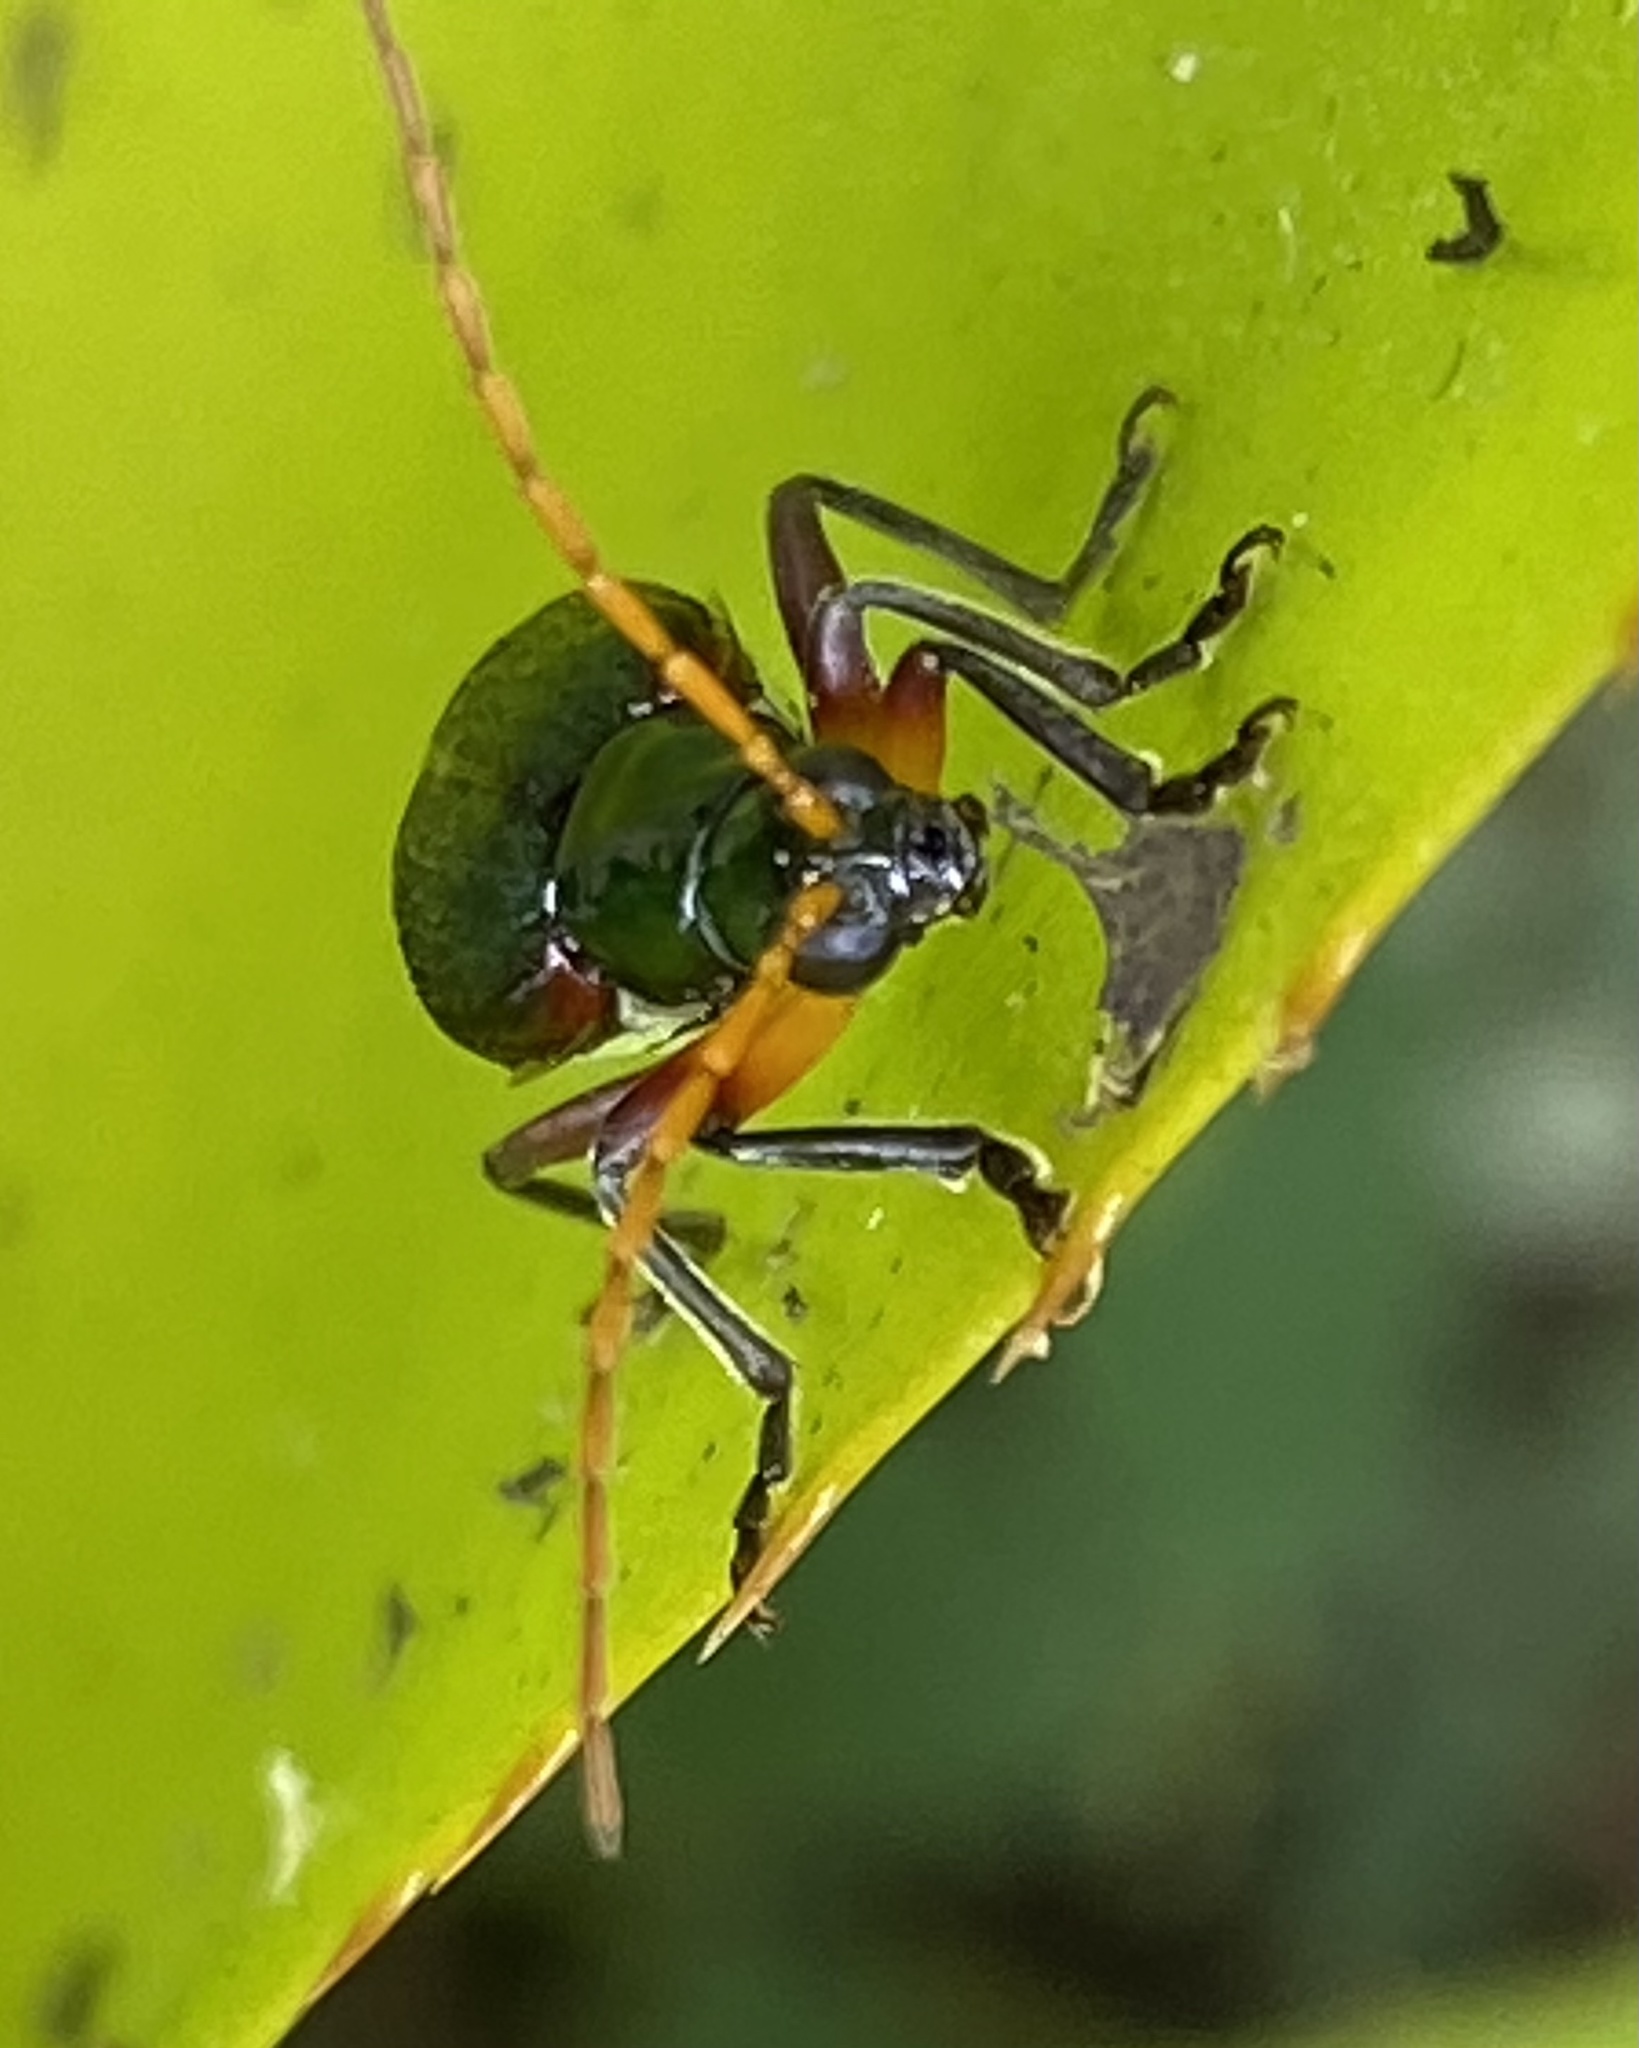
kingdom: Animalia
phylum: Arthropoda
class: Insecta
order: Coleoptera
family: Chrysomelidae
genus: Cochabamba
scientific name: Cochabamba
